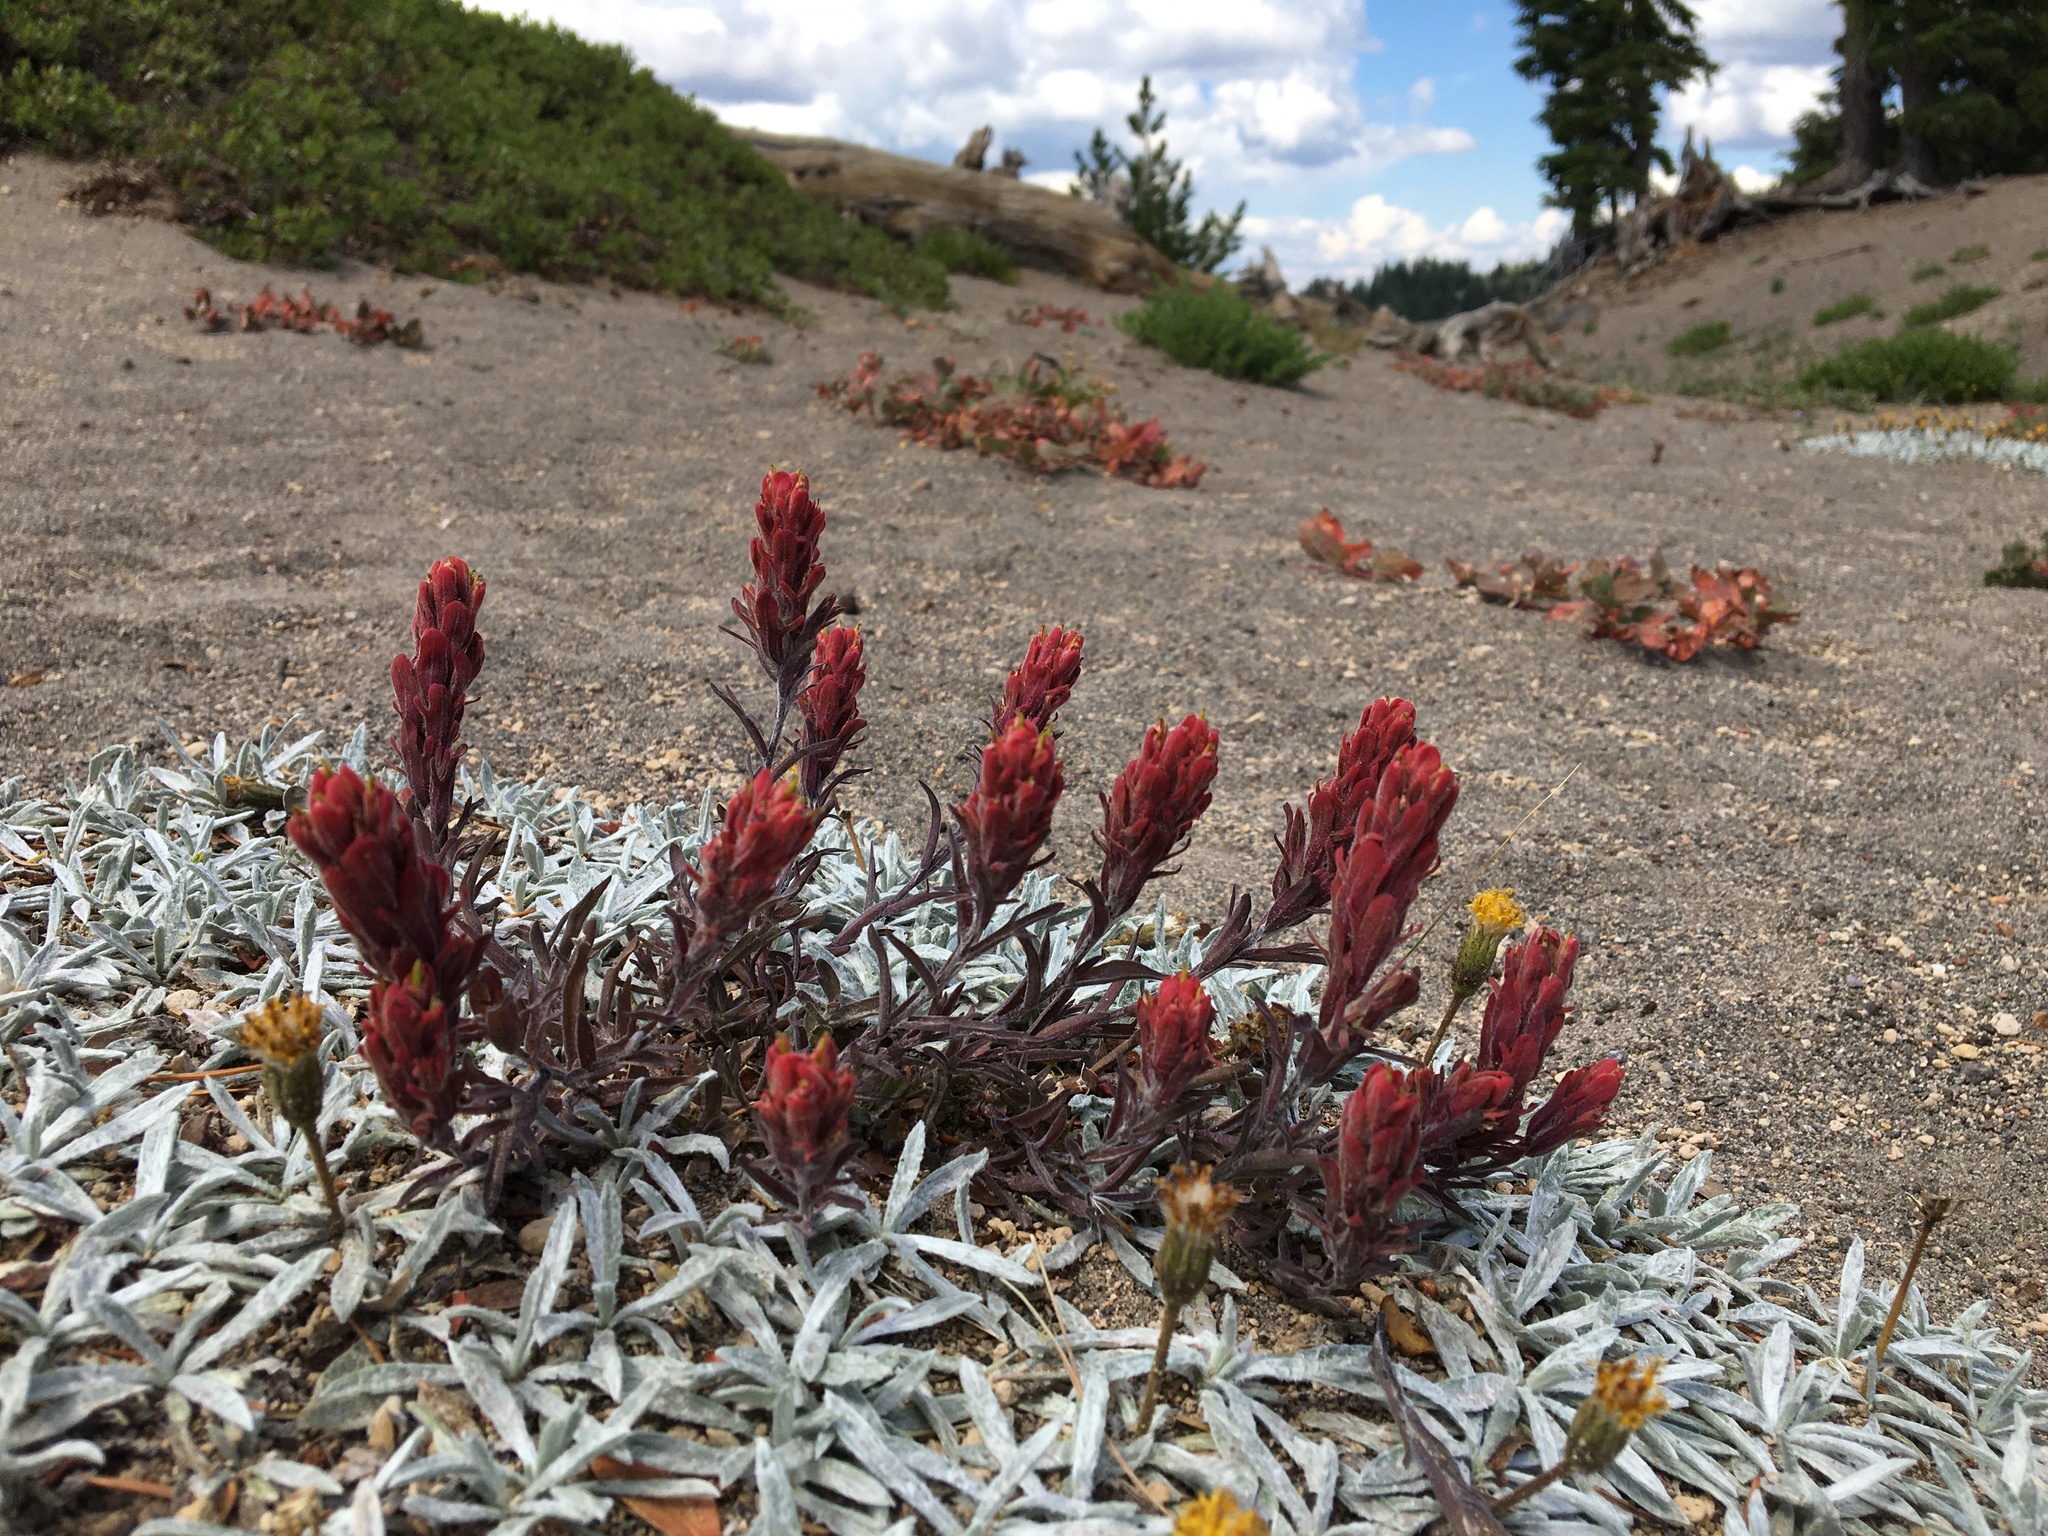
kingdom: Plantae
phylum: Tracheophyta
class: Magnoliopsida
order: Lamiales
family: Orobanchaceae
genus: Castilleja
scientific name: Castilleja arachnoidea
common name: Cobwebby indian paintbrush
